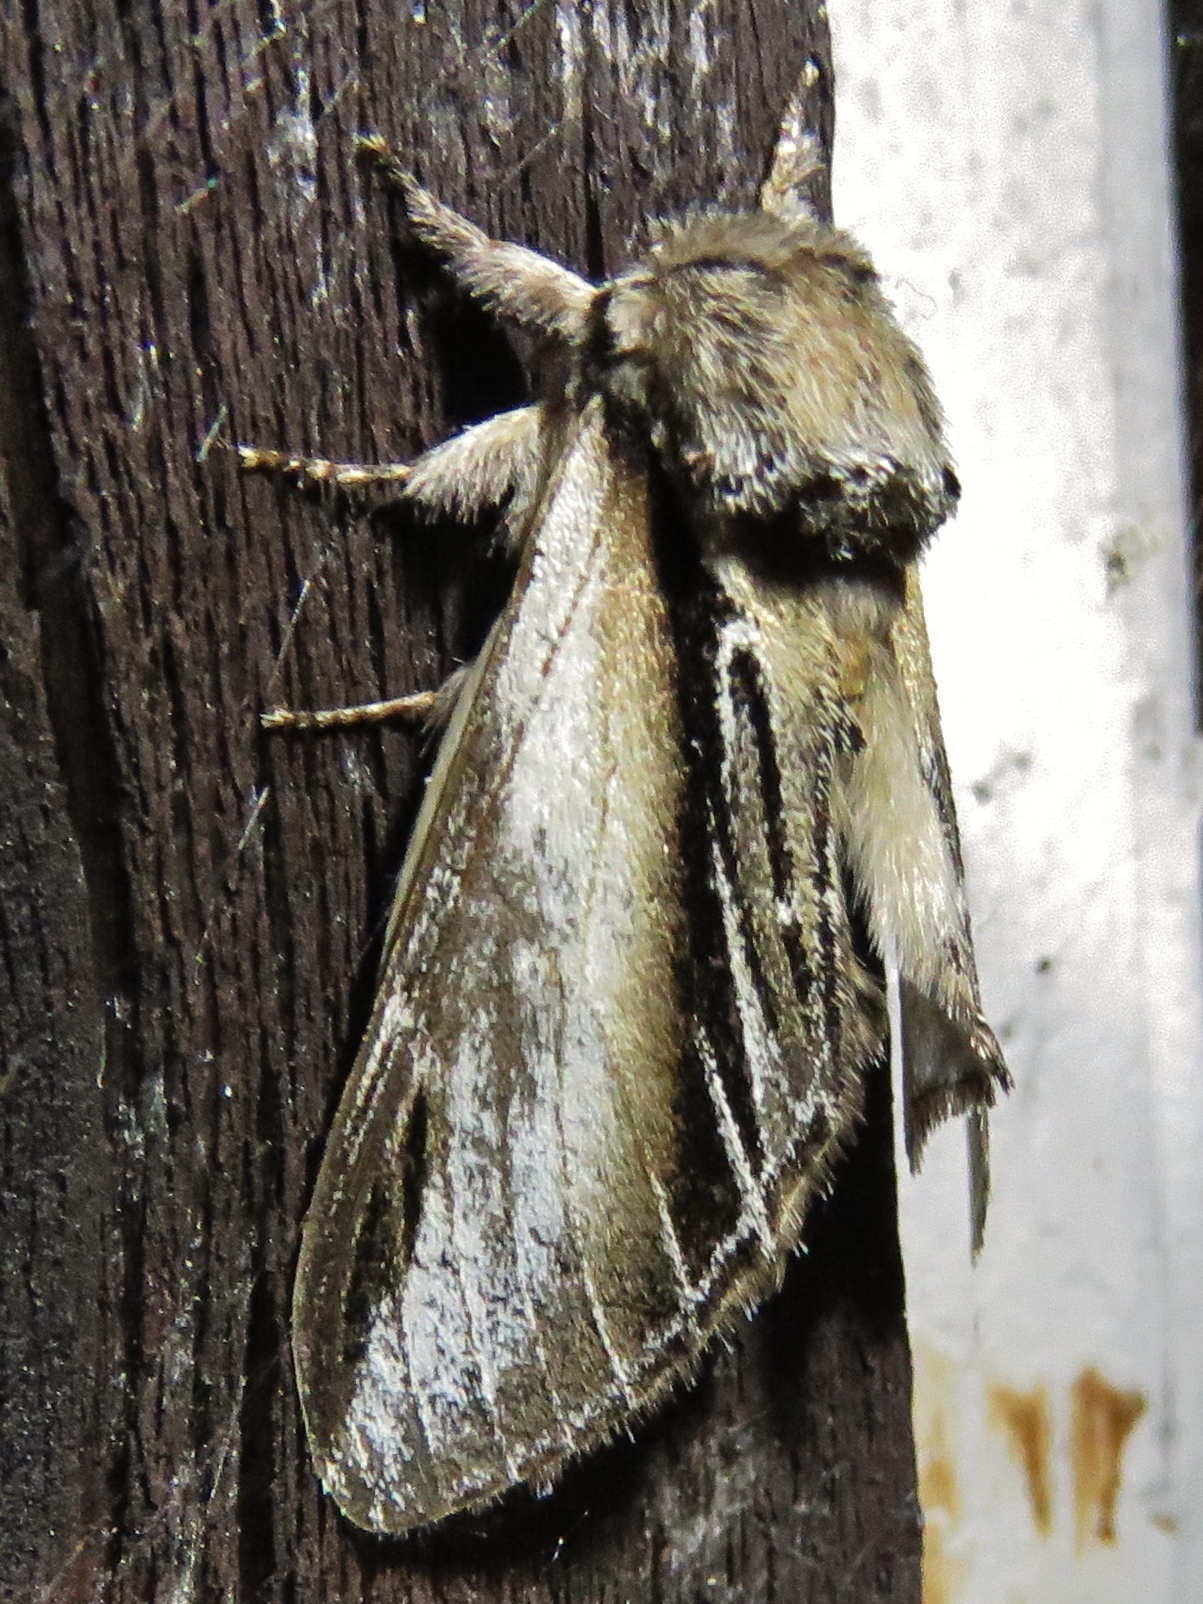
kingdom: Animalia
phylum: Arthropoda
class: Insecta
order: Lepidoptera
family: Notodontidae
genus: Pheosia
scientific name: Pheosia tremula
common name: Swallow prominent
